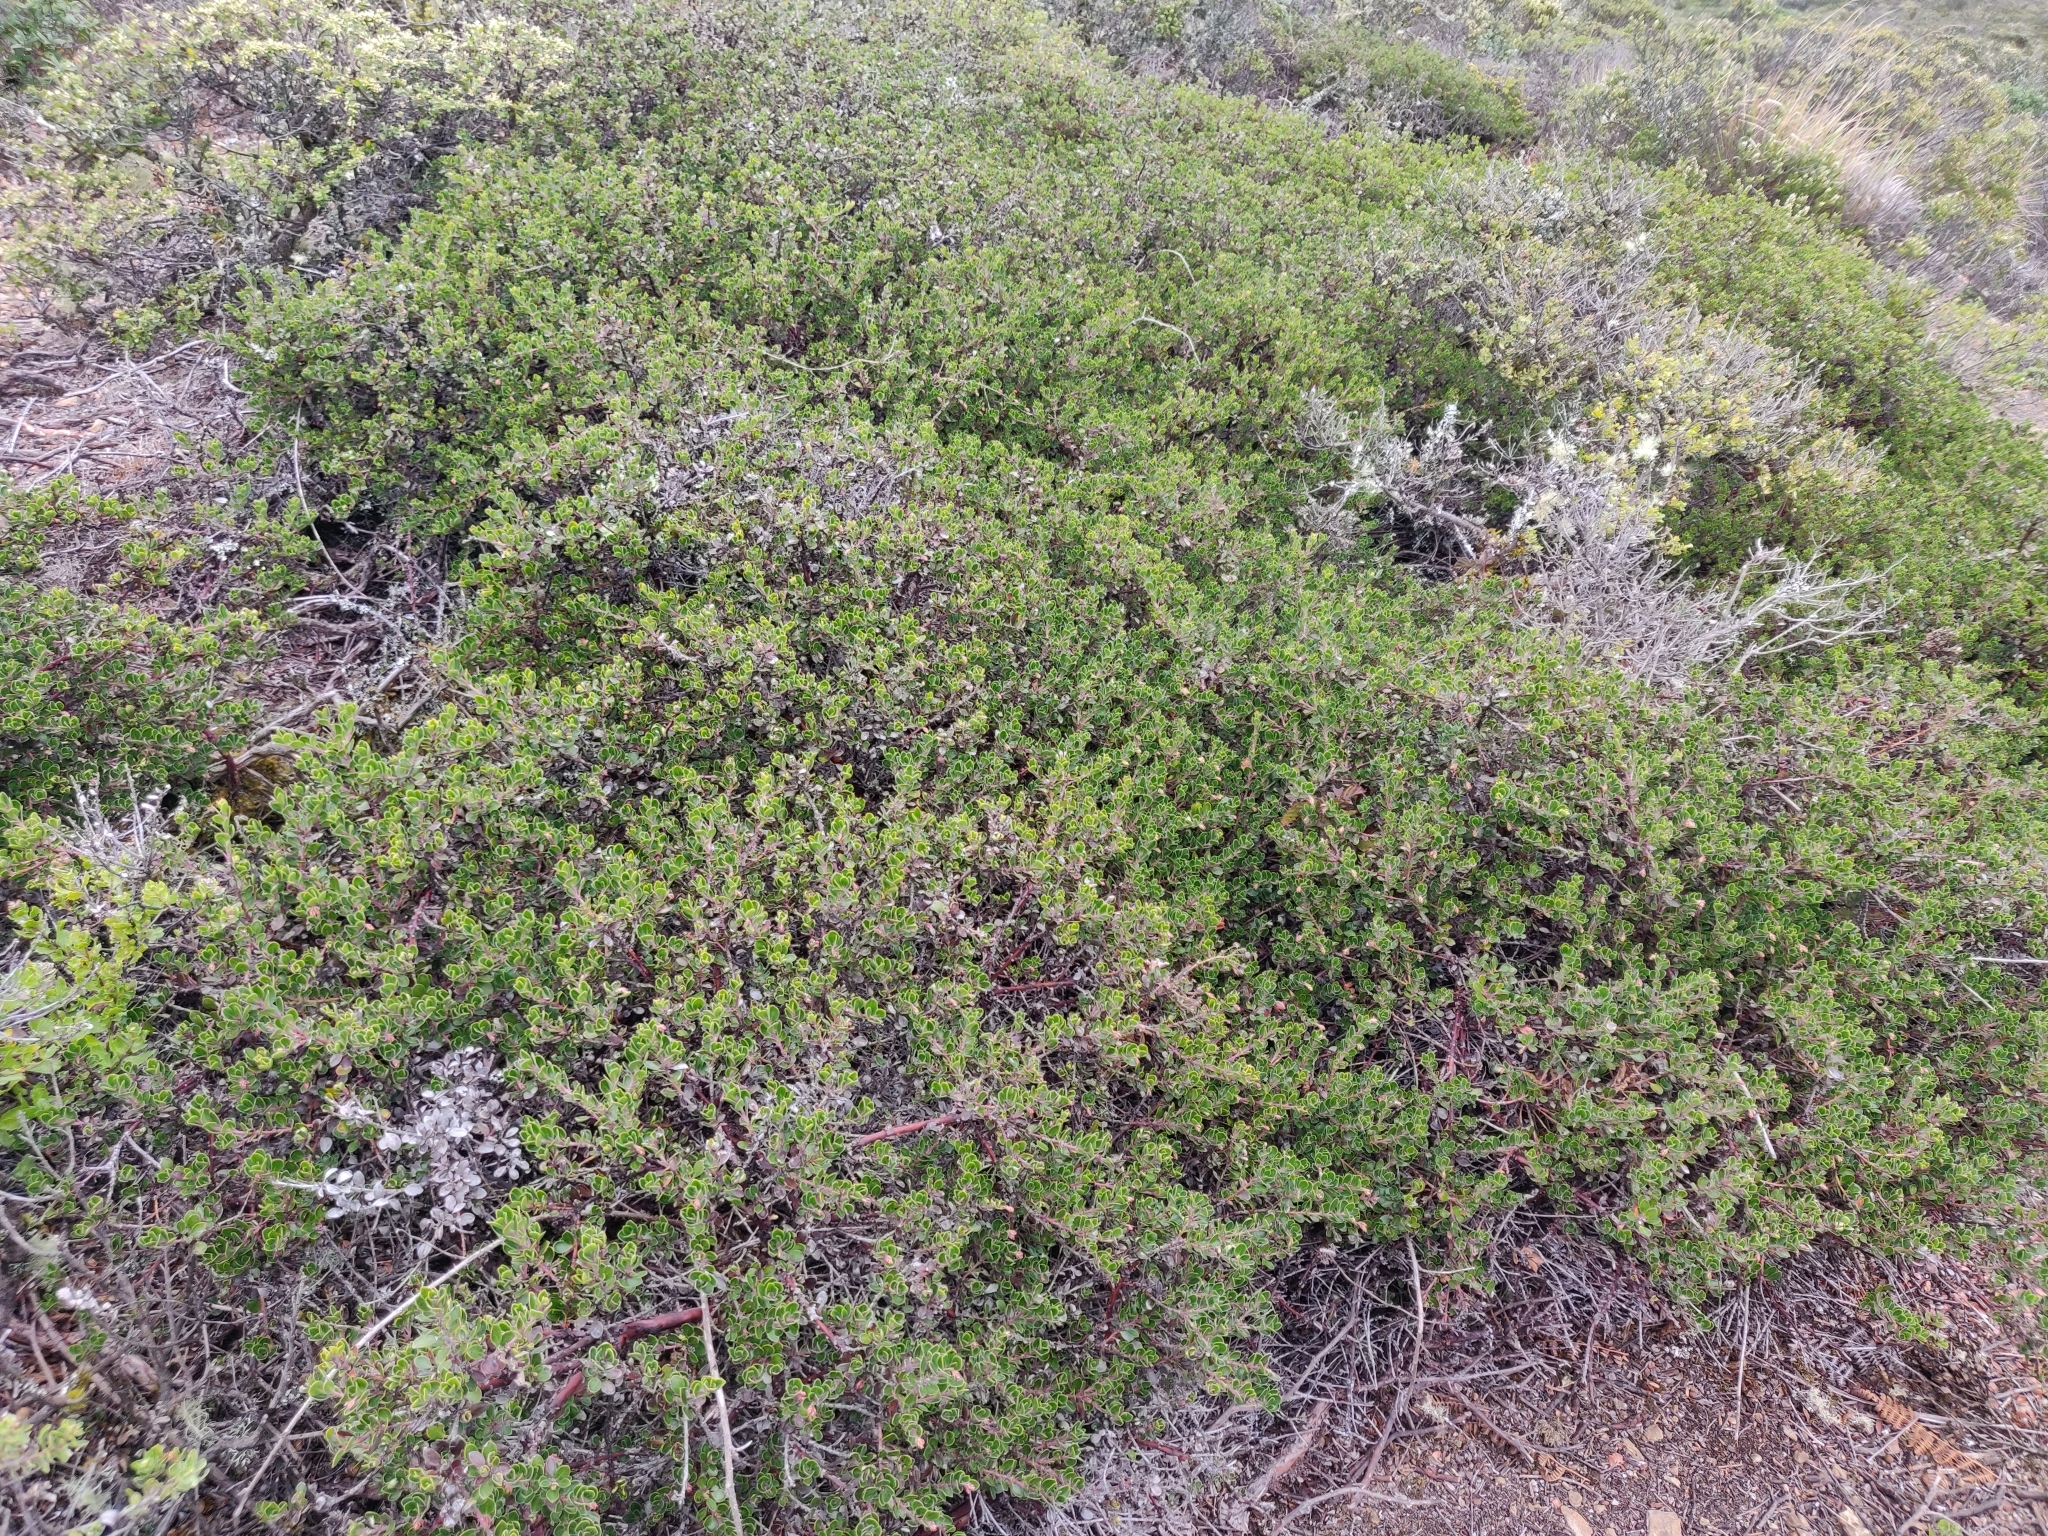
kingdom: Plantae
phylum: Tracheophyta
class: Magnoliopsida
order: Ericales
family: Ericaceae
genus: Arctostaphylos
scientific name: Arctostaphylos uva-ursi
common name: Bearberry
